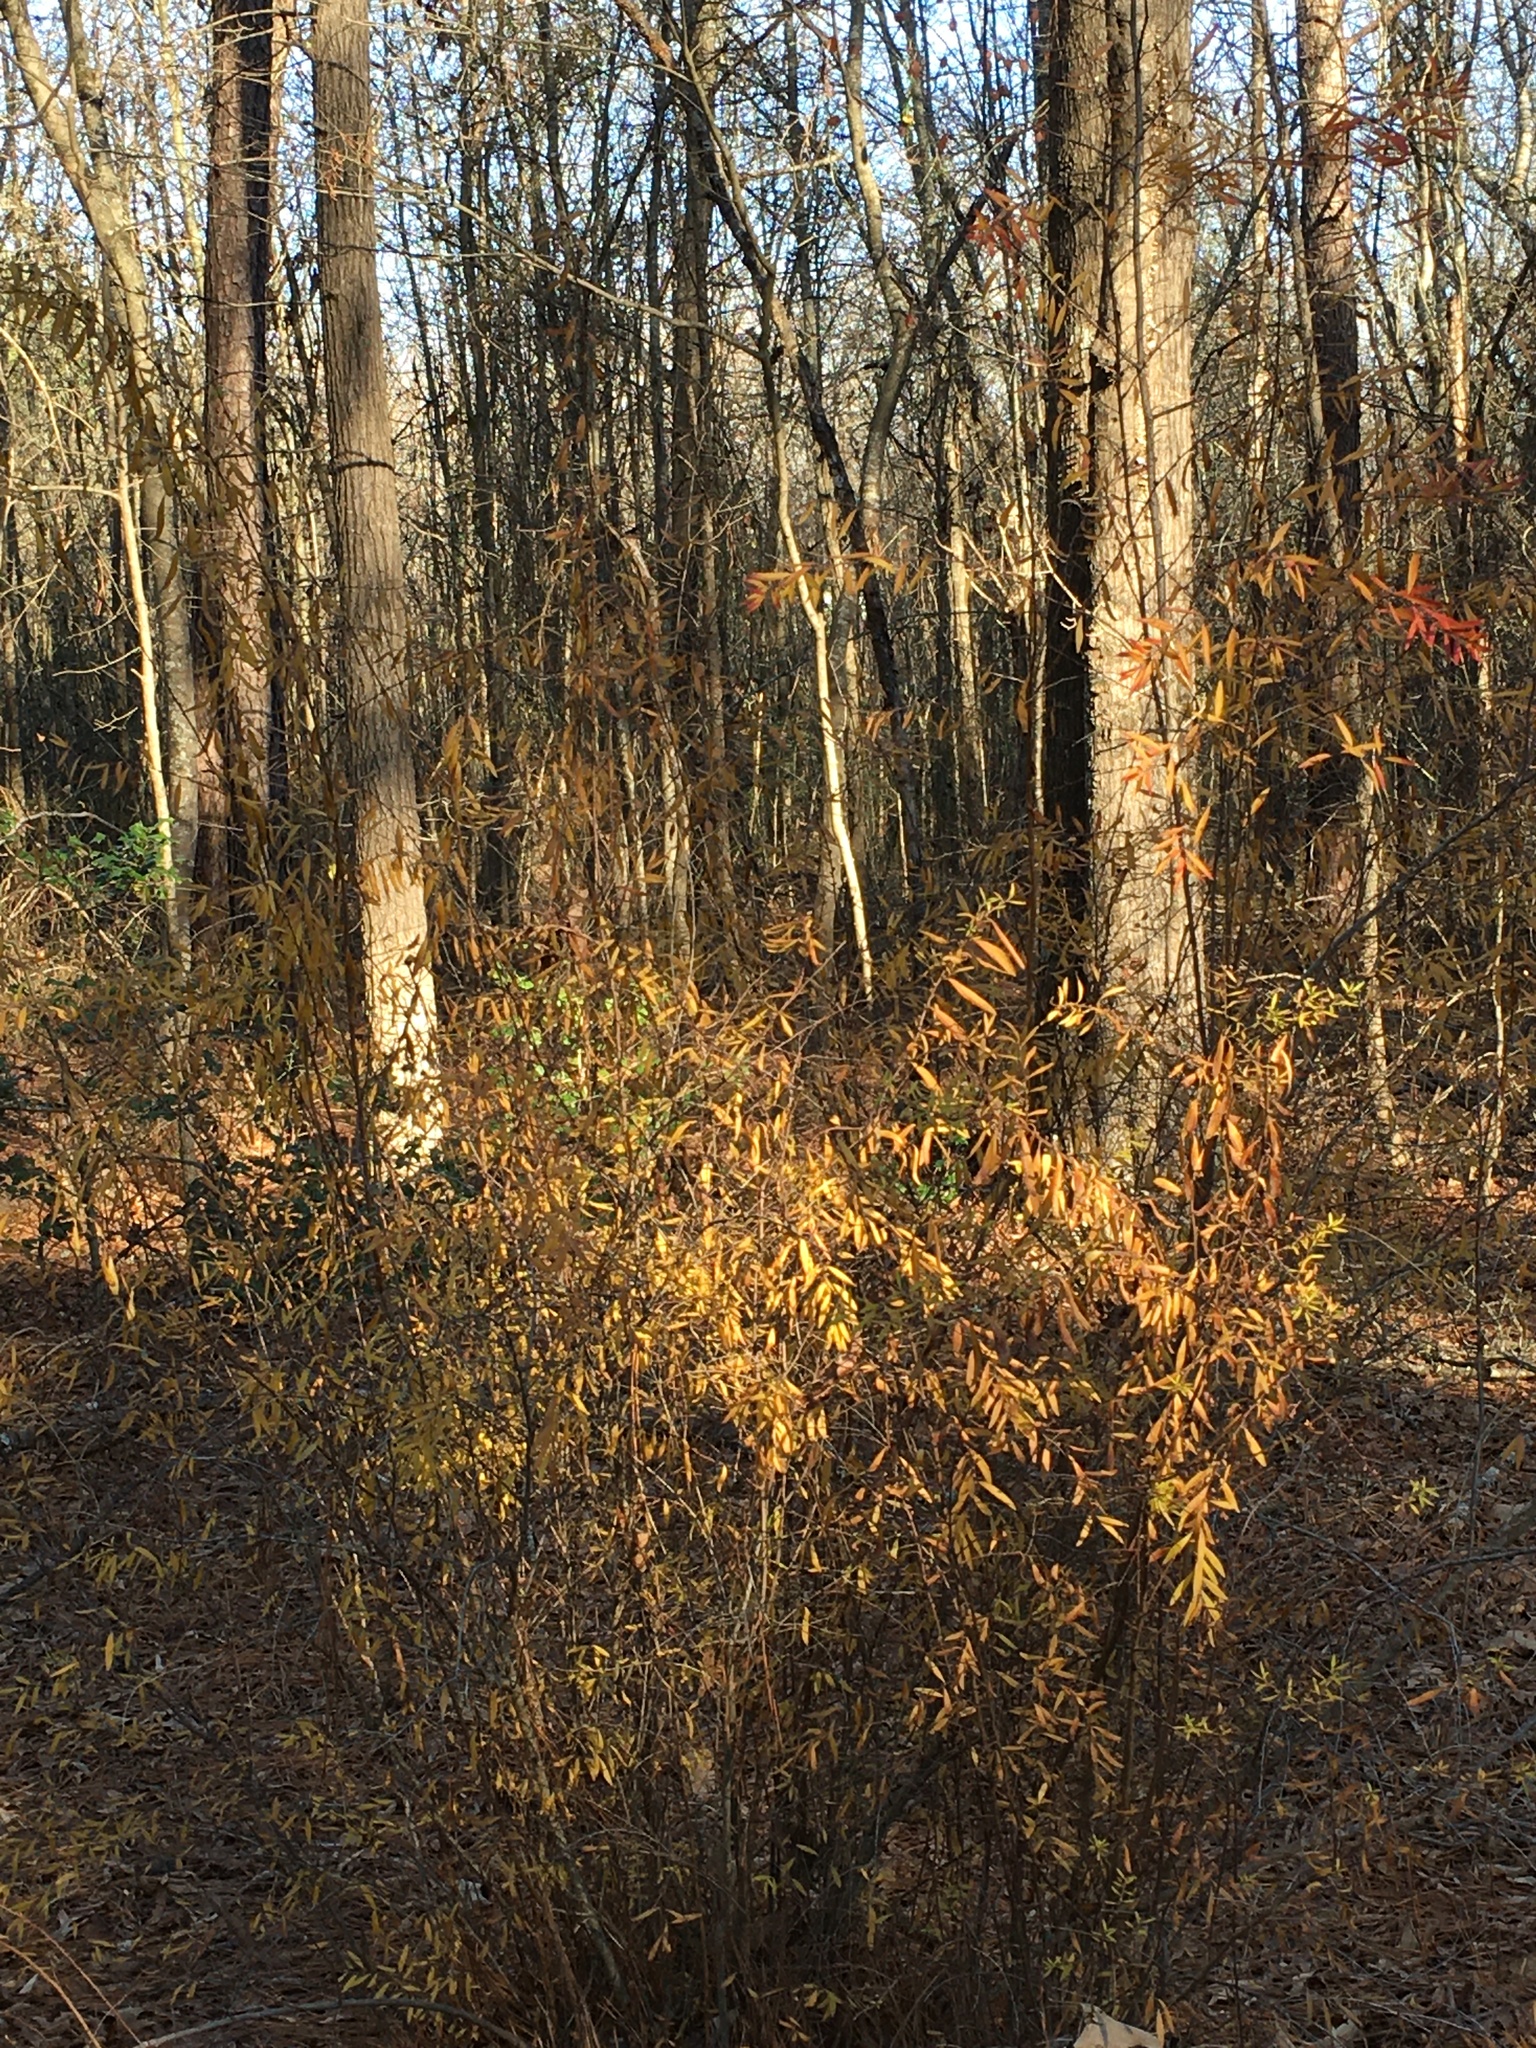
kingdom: Plantae
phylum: Tracheophyta
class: Magnoliopsida
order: Rosales
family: Rosaceae
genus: Spiraea
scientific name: Spiraea thunbergii
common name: Thunberg's meadowsweet
